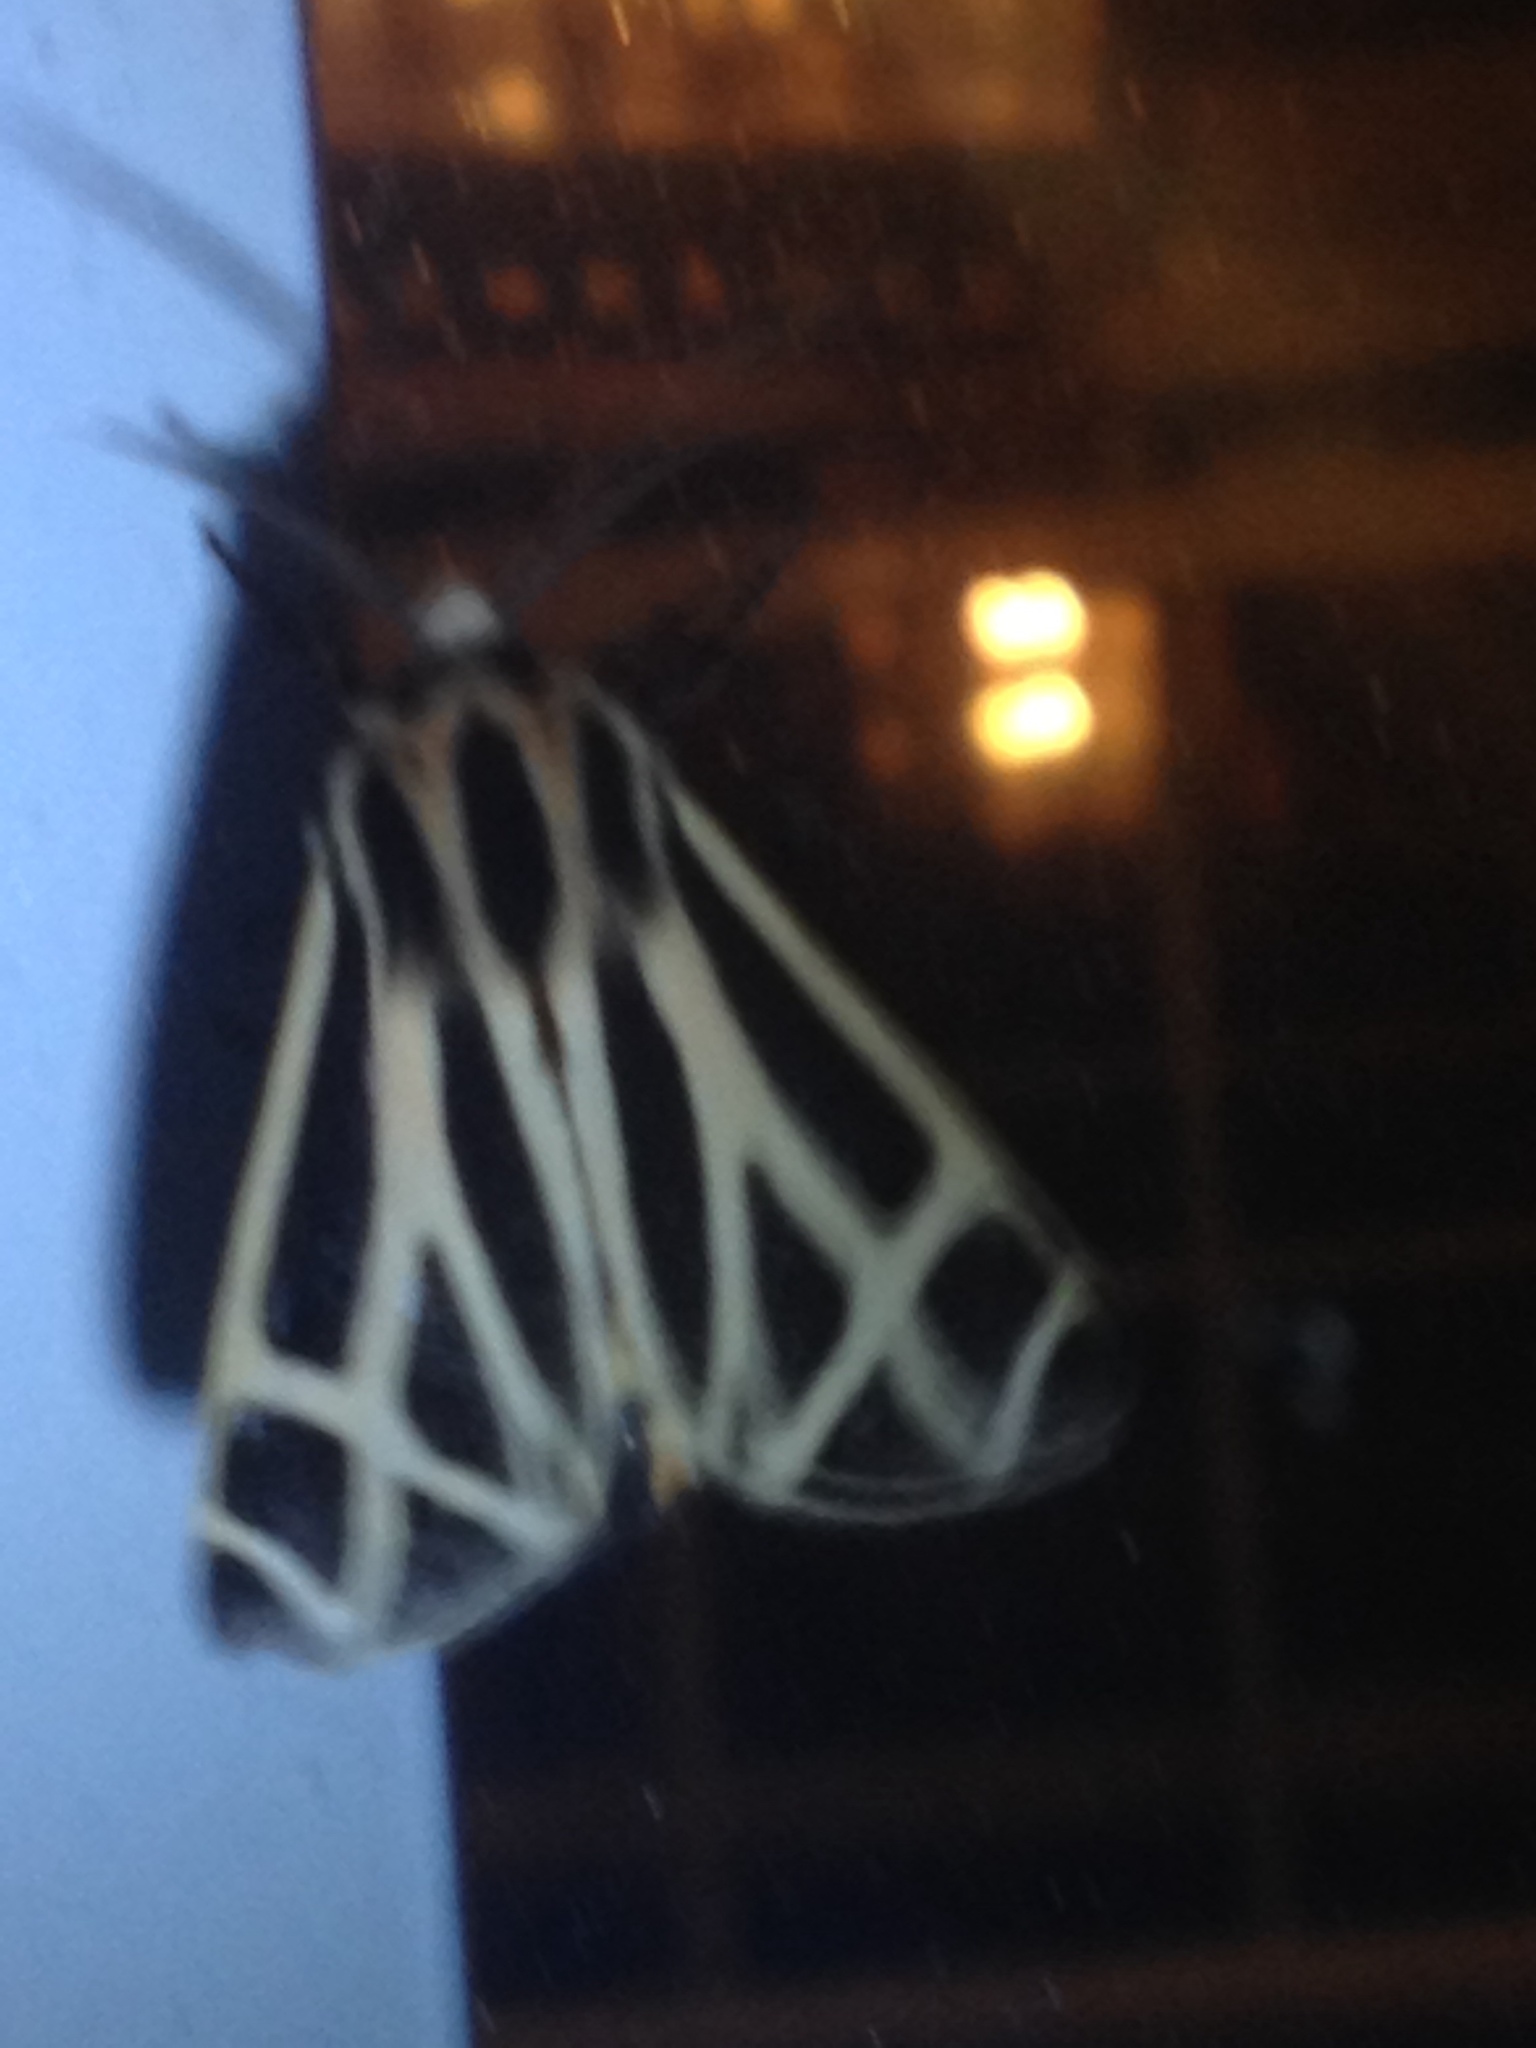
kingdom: Animalia
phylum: Arthropoda
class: Insecta
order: Lepidoptera
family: Erebidae
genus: Apantesis
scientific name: Apantesis phalerata
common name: Harnessed tiger moth
